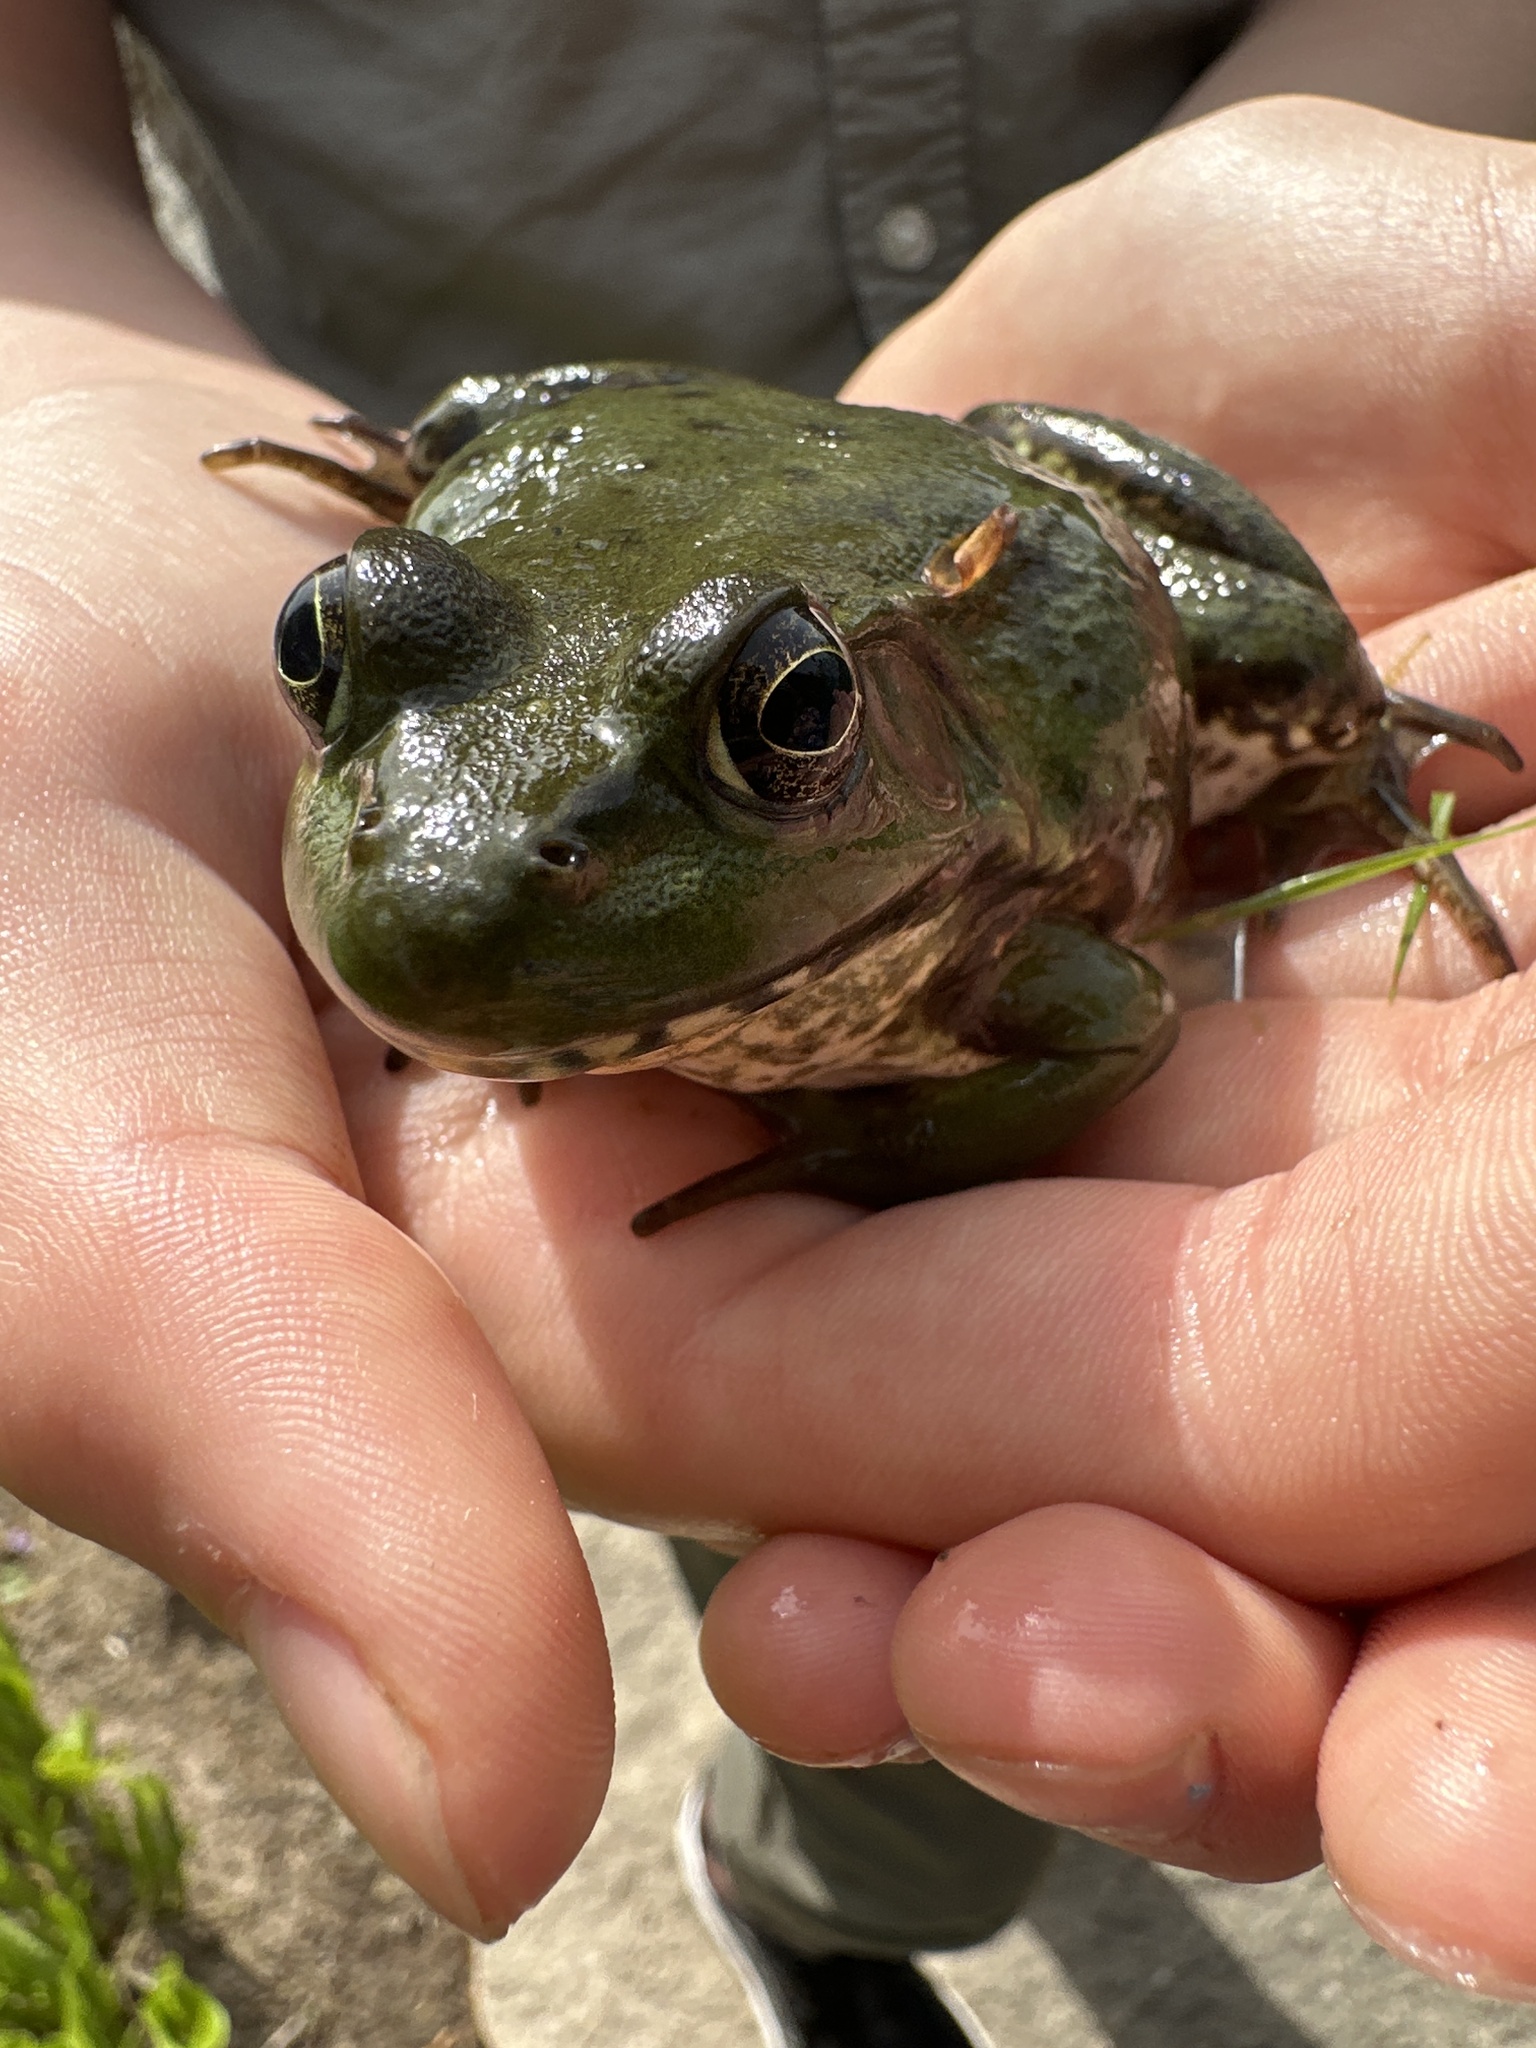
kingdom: Animalia
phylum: Chordata
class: Amphibia
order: Anura
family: Ranidae
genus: Lithobates
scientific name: Lithobates catesbeianus
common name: American bullfrog
